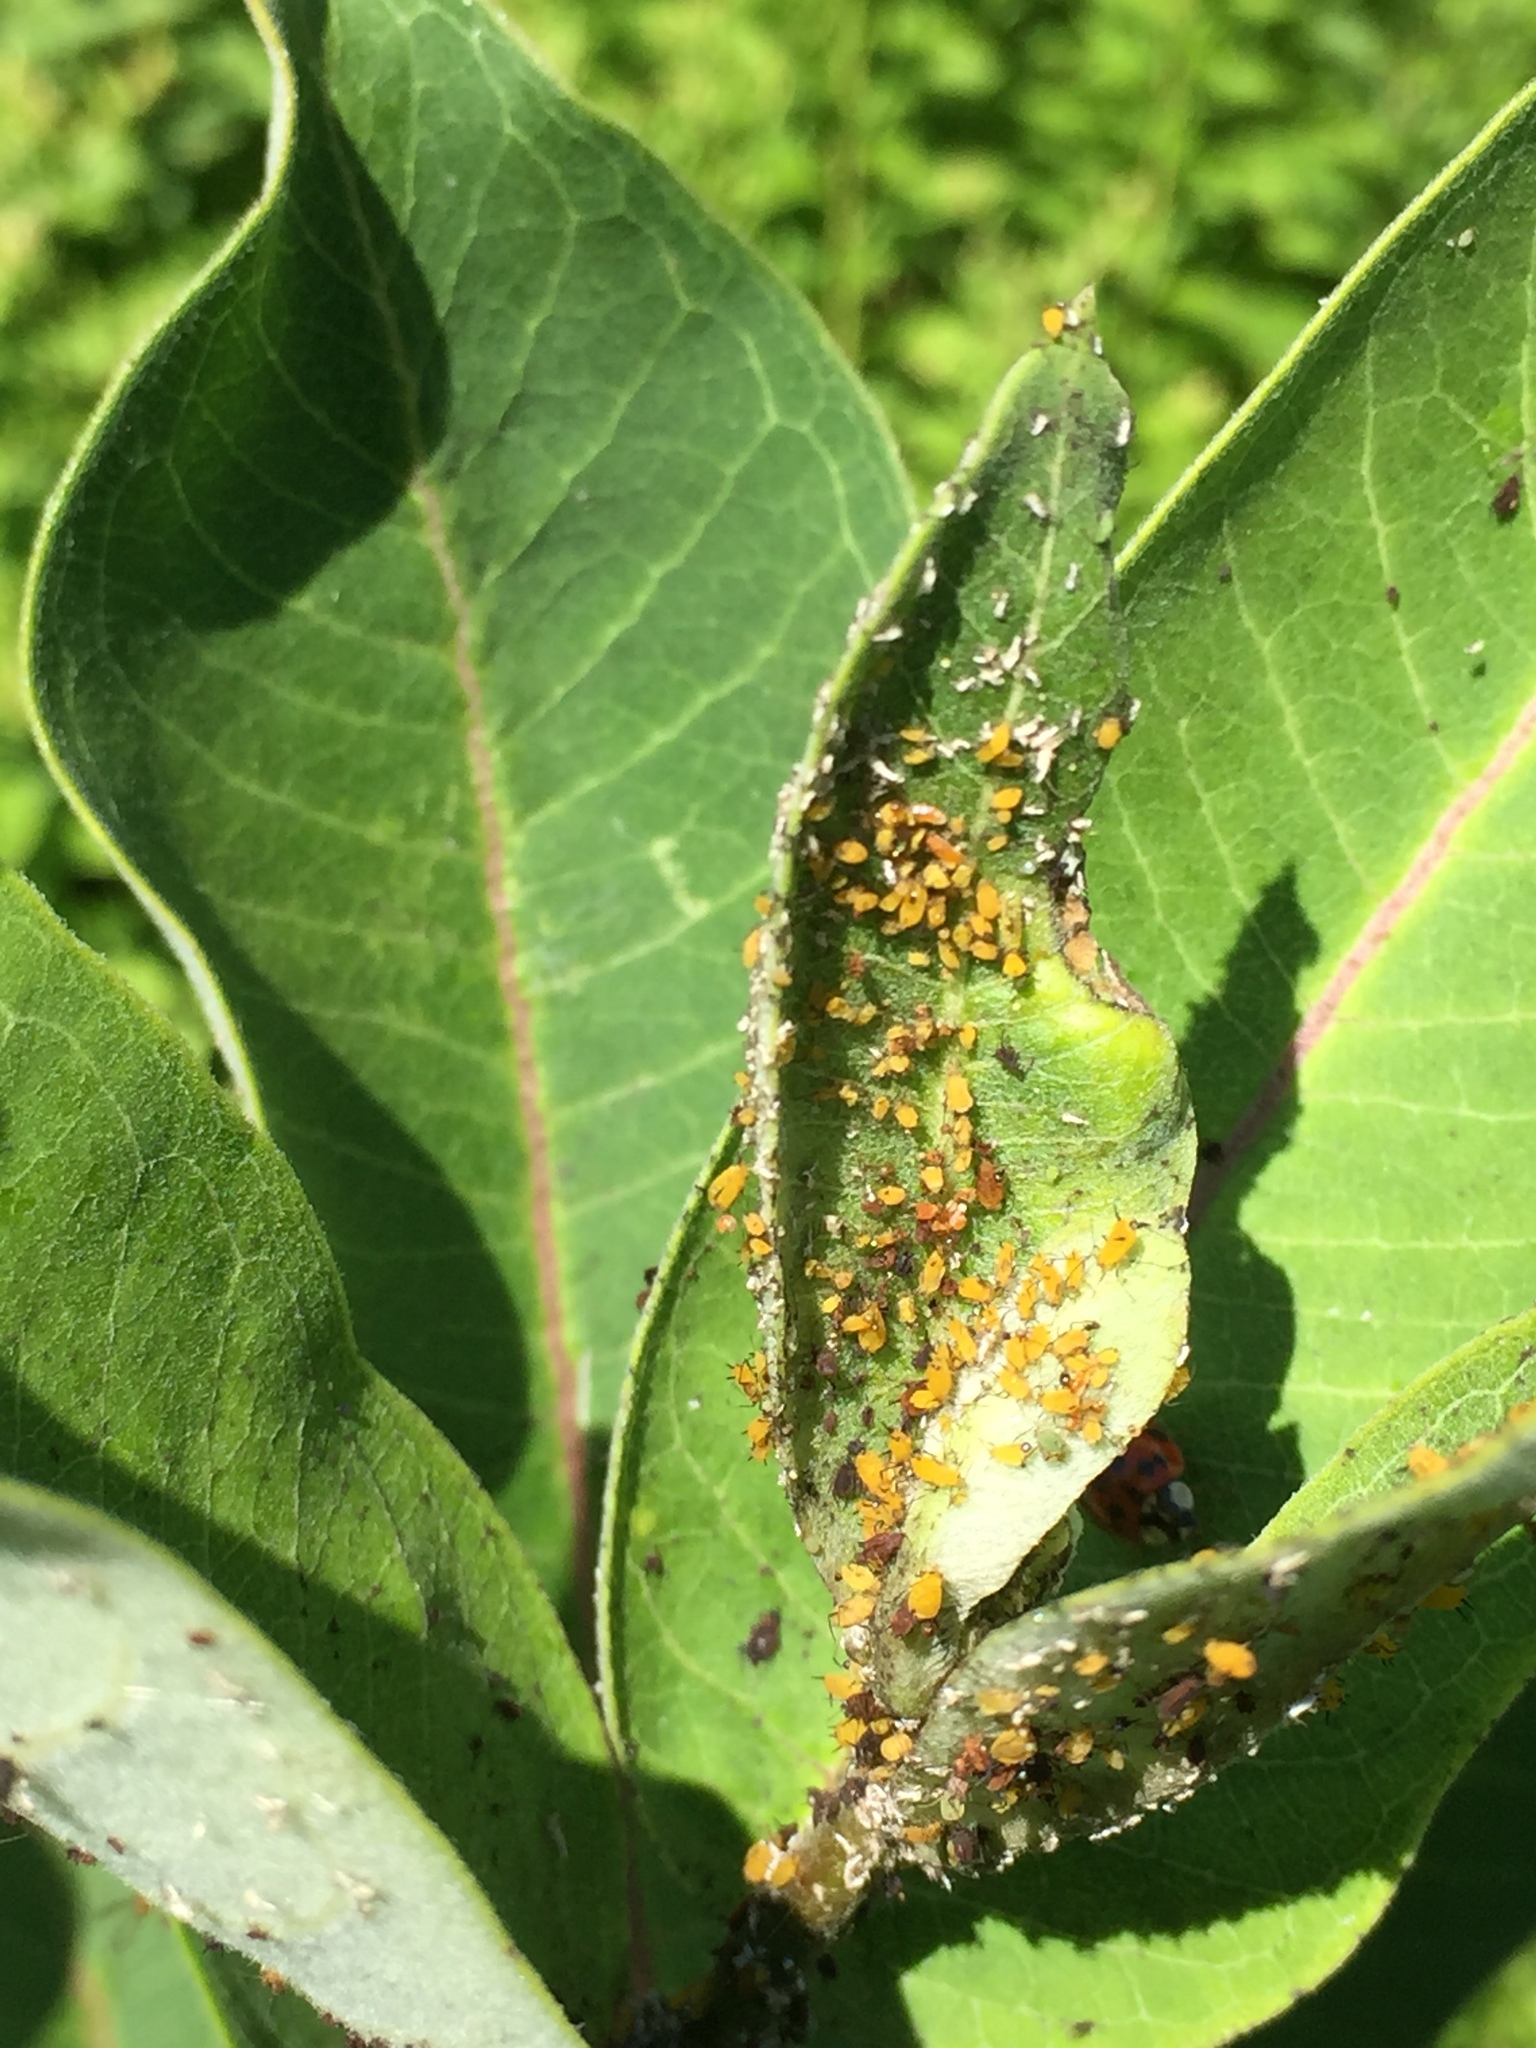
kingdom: Animalia
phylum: Arthropoda
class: Insecta
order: Hemiptera
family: Aphididae
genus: Aphis
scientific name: Aphis nerii
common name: Oleander aphid
